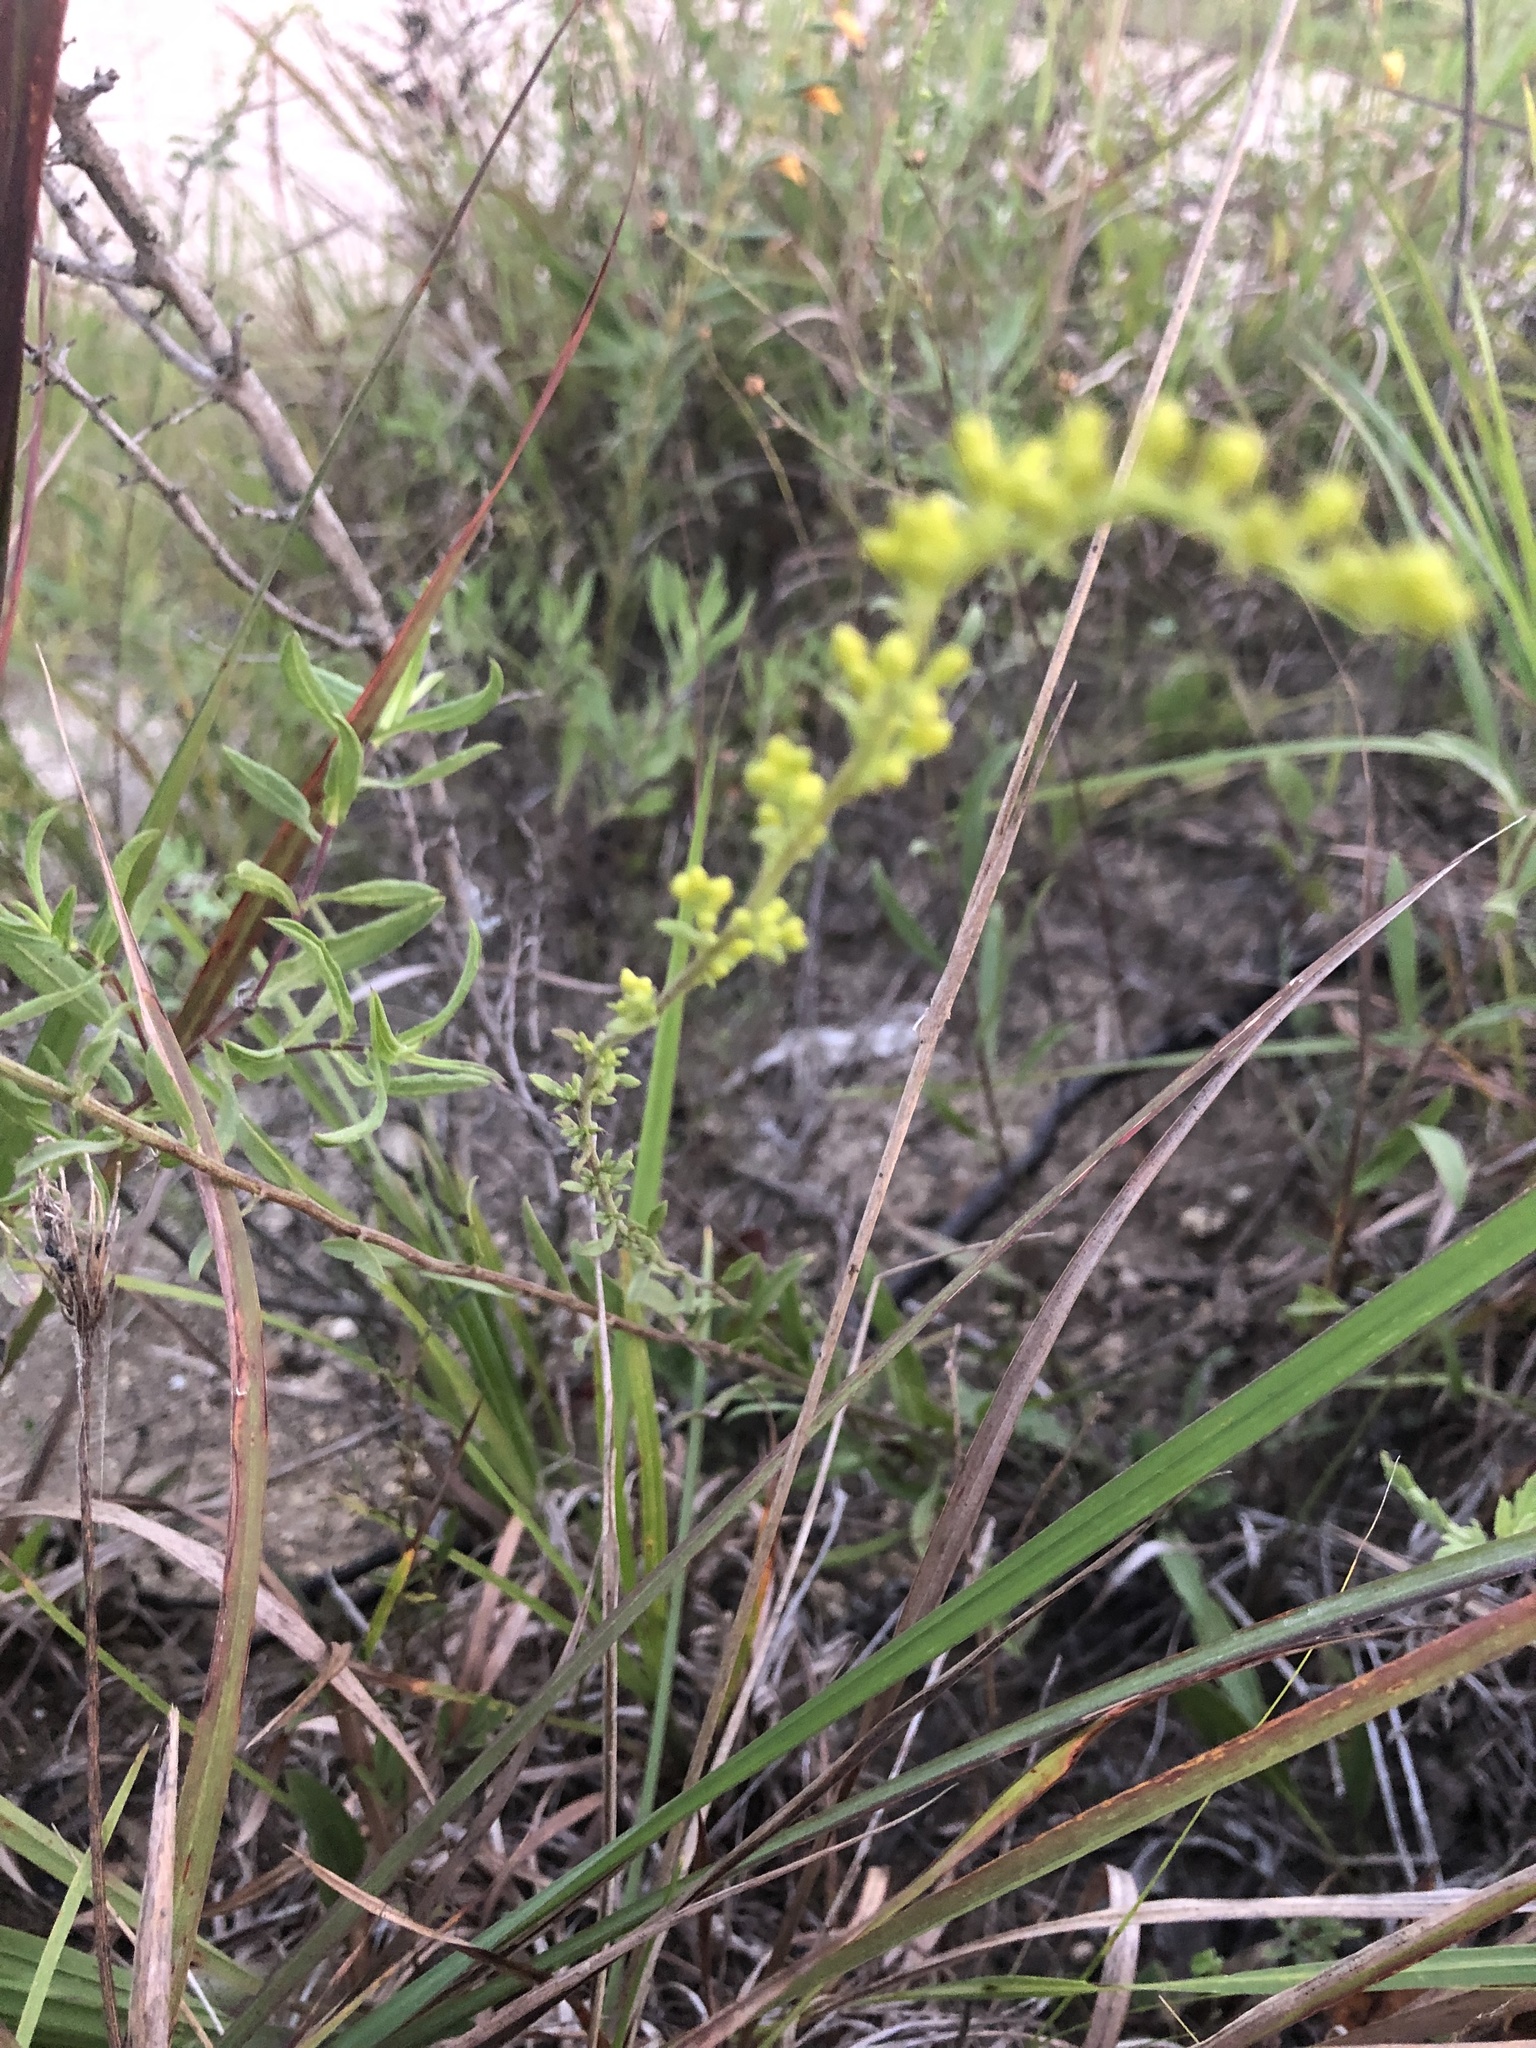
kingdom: Plantae
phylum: Tracheophyta
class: Magnoliopsida
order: Asterales
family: Asteraceae
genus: Solidago
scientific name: Solidago nemoralis
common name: Grey goldenrod
